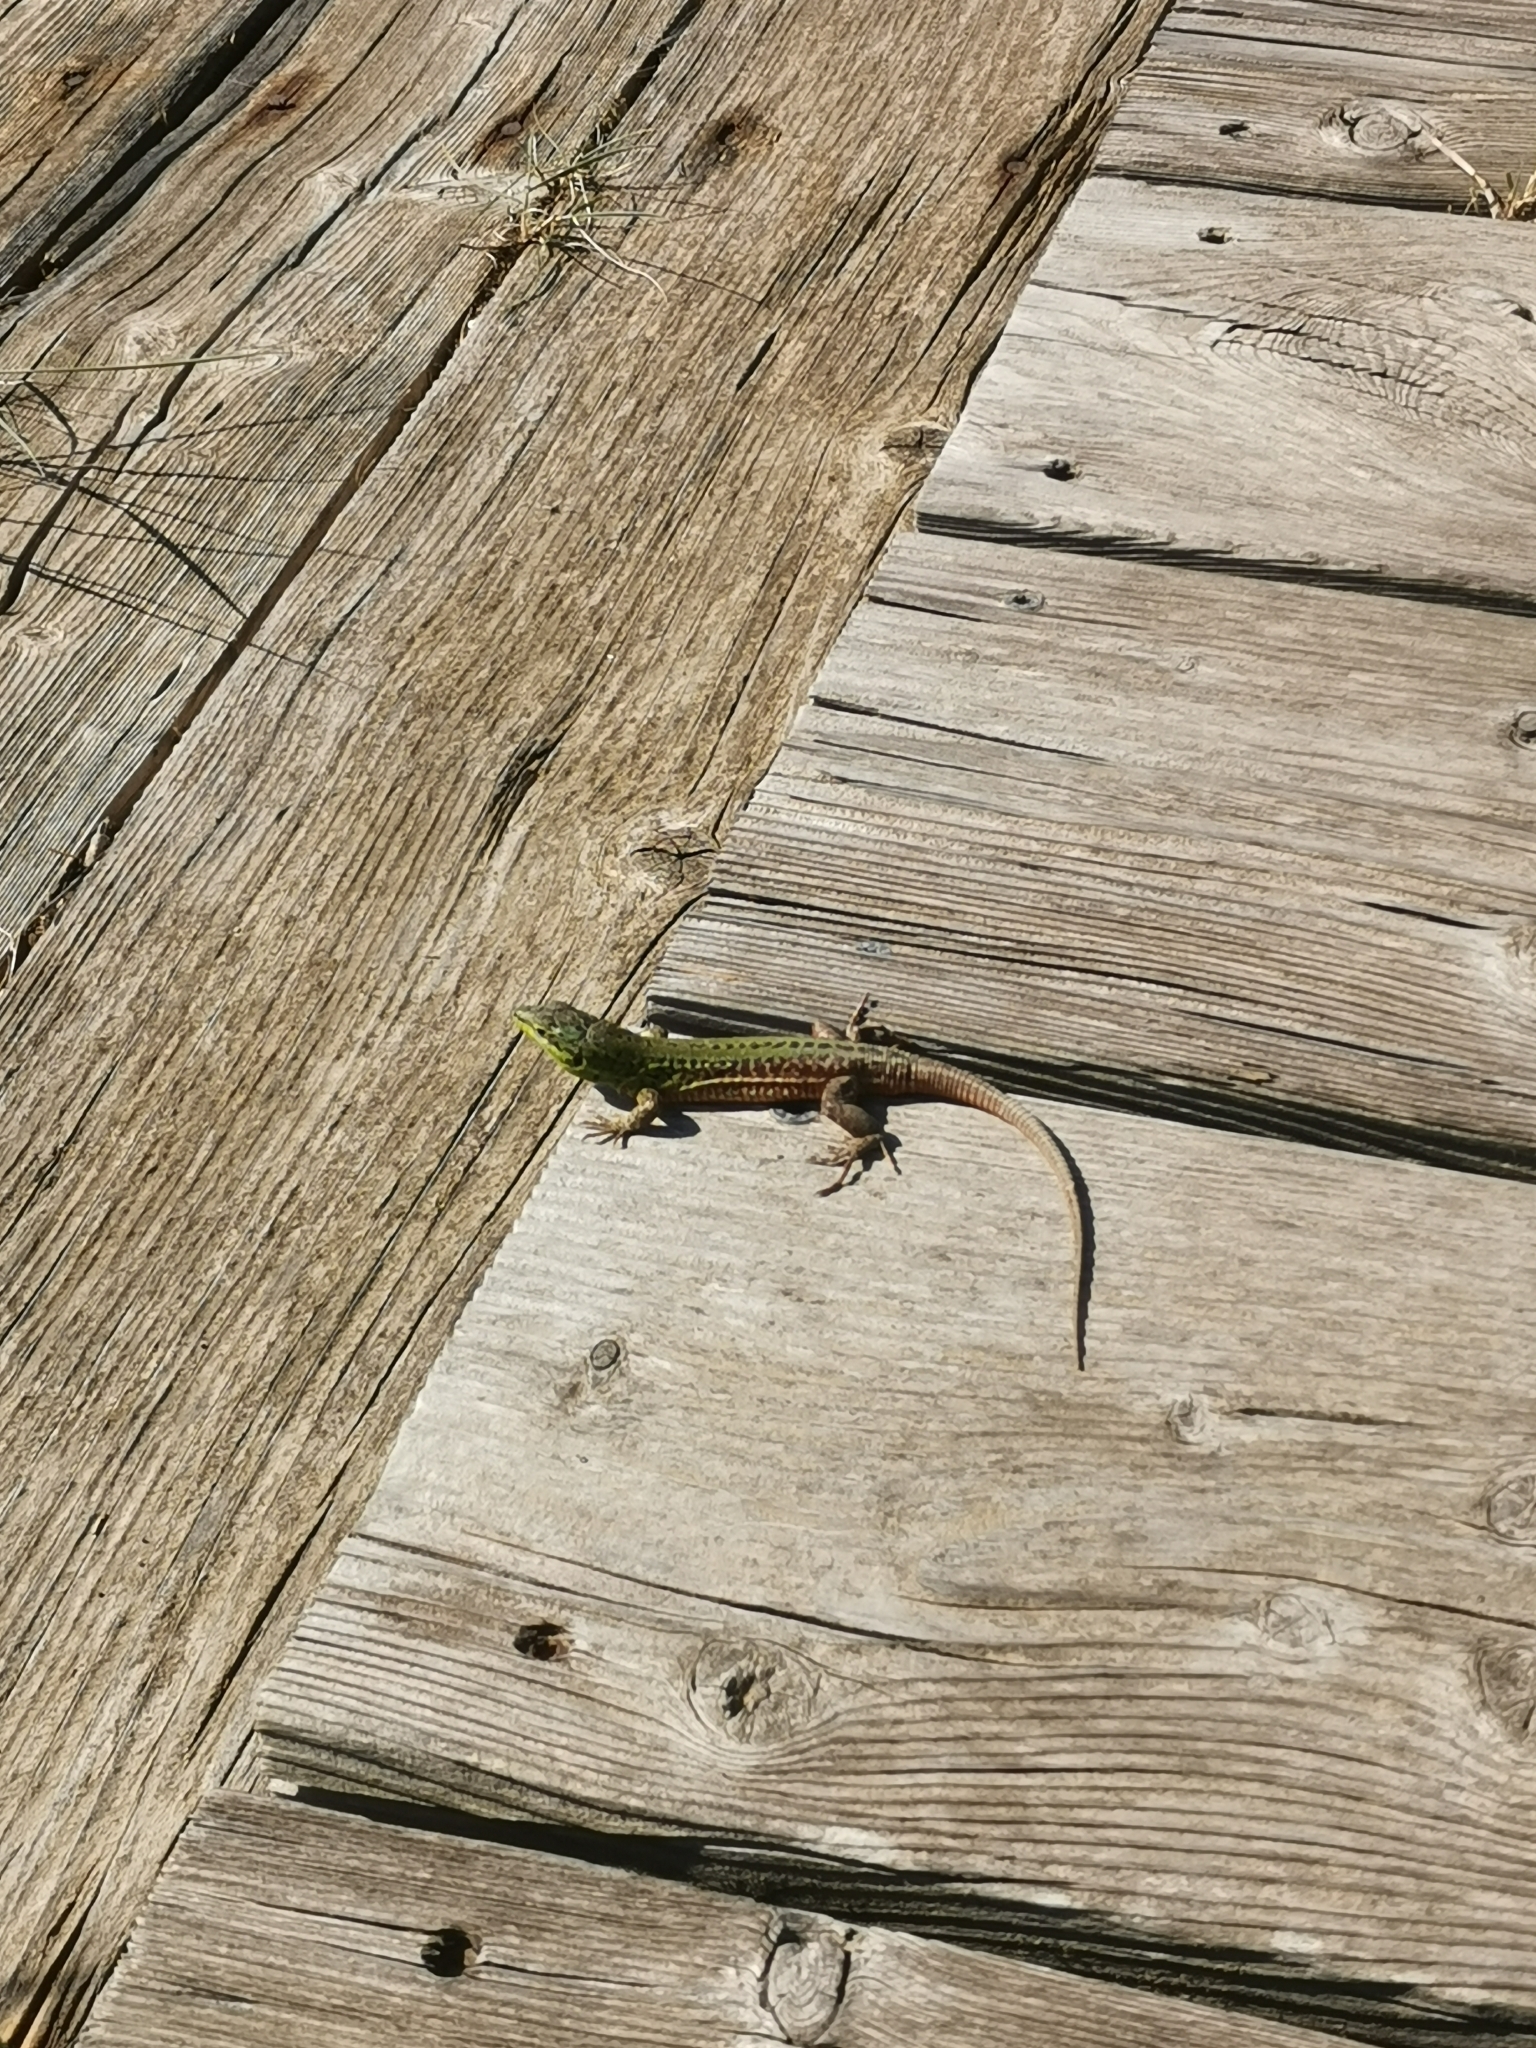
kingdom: Animalia
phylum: Chordata
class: Squamata
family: Lacertidae
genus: Podarcis
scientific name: Podarcis siculus
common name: Italian wall lizard
